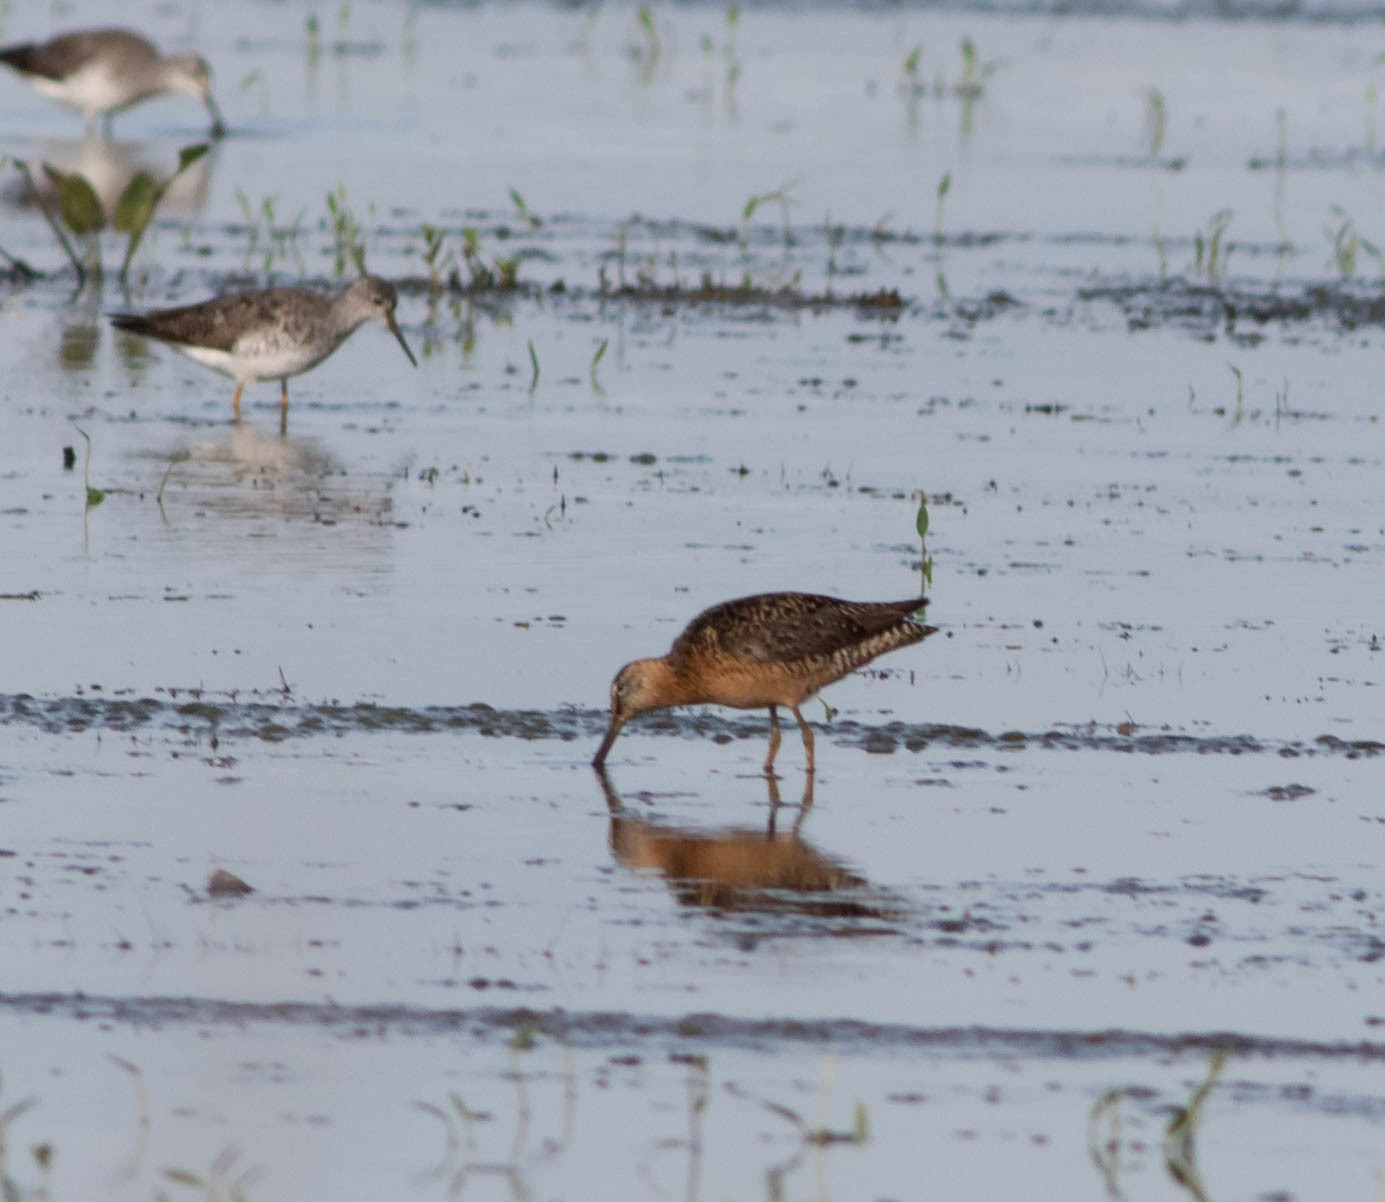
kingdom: Animalia
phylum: Chordata
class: Aves
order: Charadriiformes
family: Scolopacidae
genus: Limnodromus
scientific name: Limnodromus scolopaceus
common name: Long-billed dowitcher
